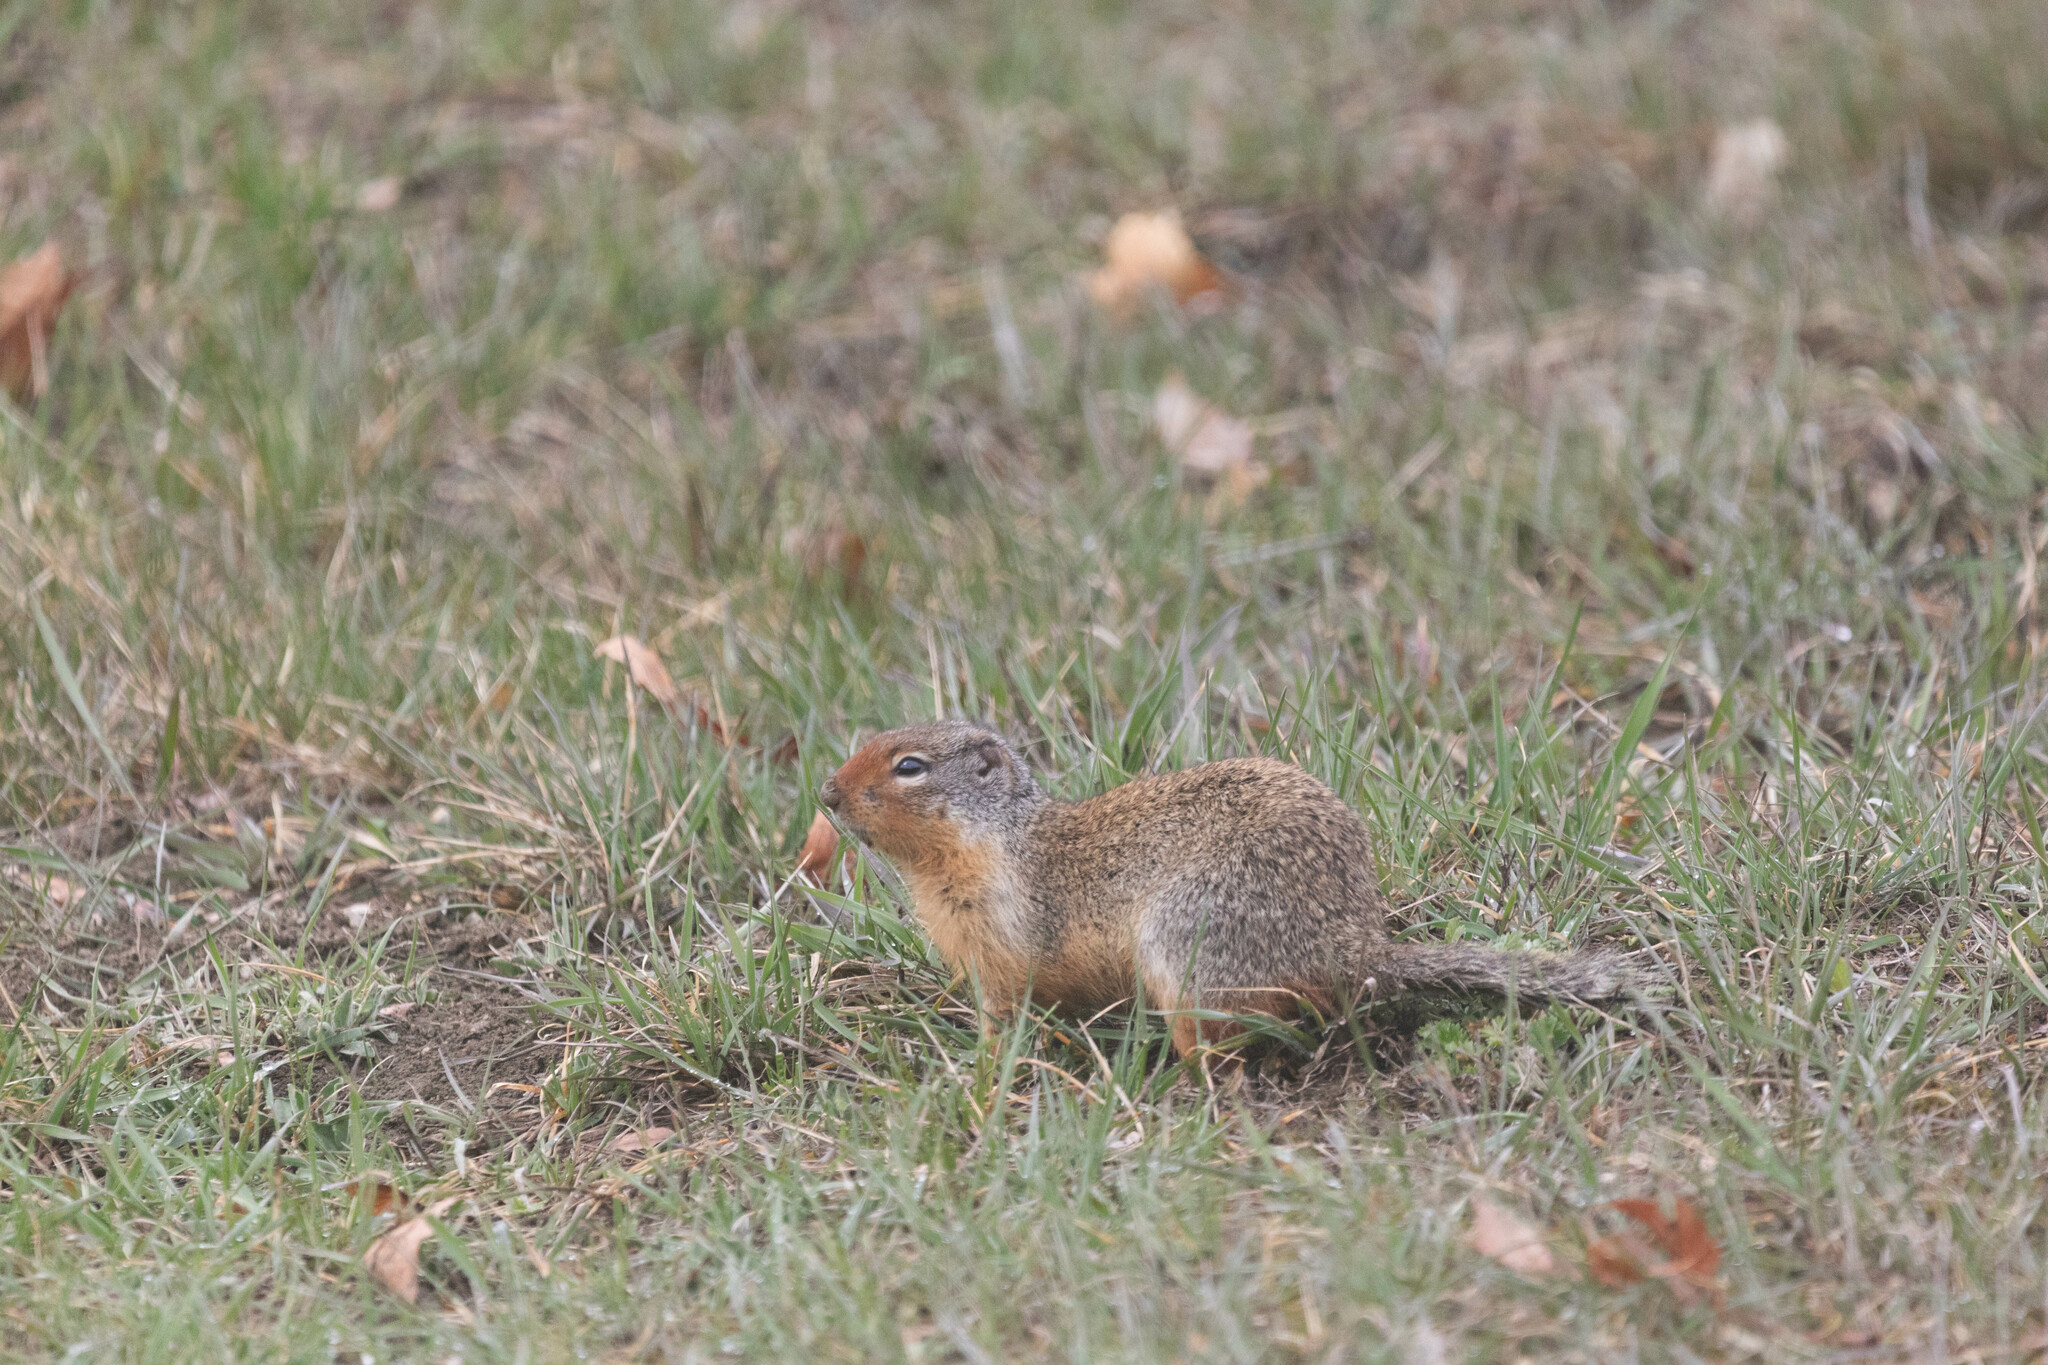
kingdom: Animalia
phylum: Chordata
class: Mammalia
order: Rodentia
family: Sciuridae
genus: Urocitellus
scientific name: Urocitellus columbianus
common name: Columbian ground squirrel
